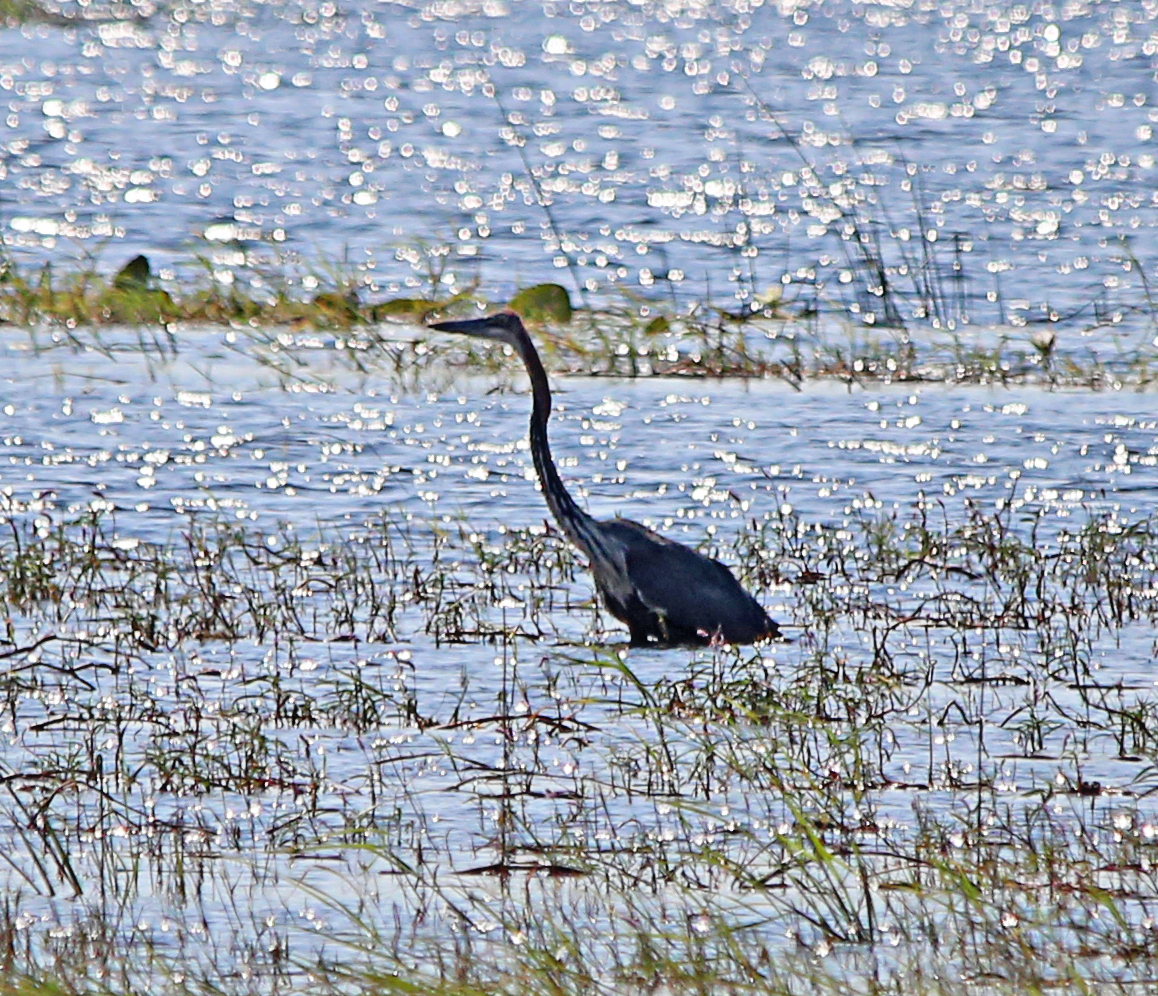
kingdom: Animalia
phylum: Chordata
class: Aves
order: Pelecaniformes
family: Ardeidae
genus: Ardea
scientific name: Ardea goliath
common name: Goliath heron
